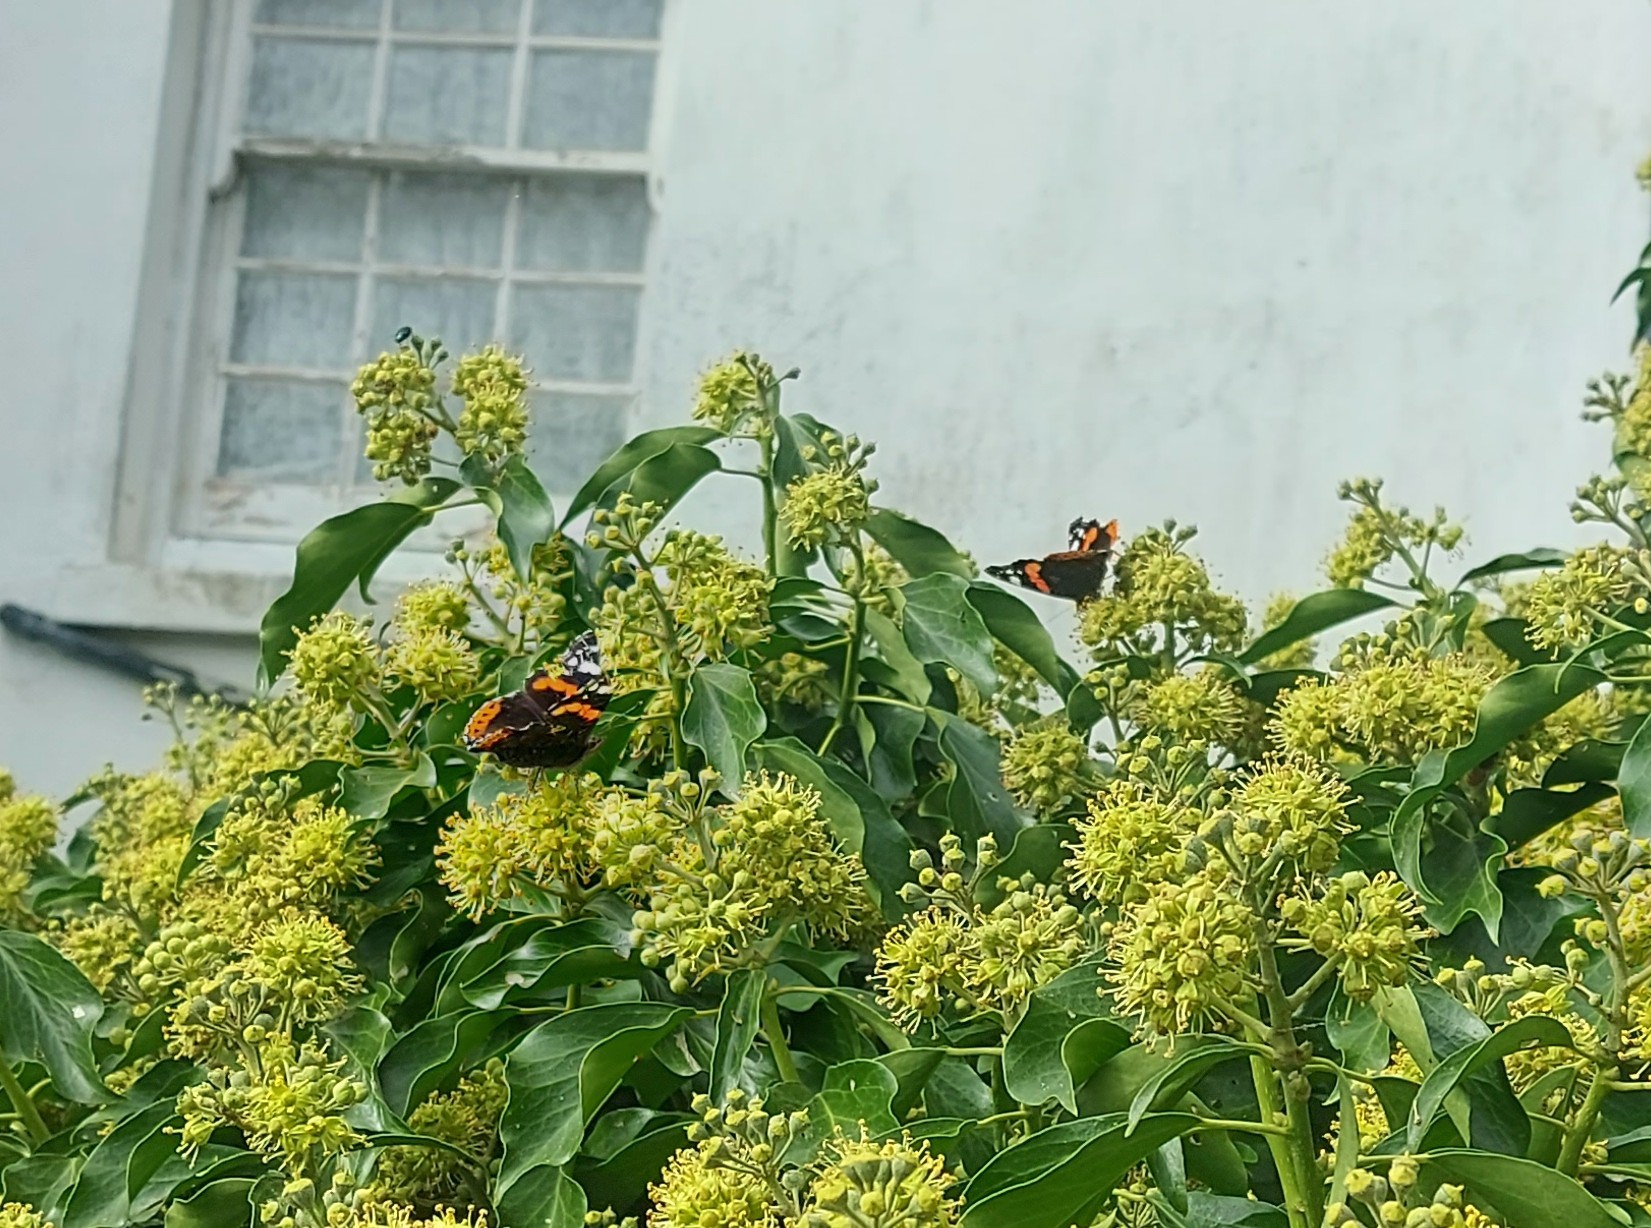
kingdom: Animalia
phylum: Arthropoda
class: Insecta
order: Lepidoptera
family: Nymphalidae
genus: Vanessa
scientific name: Vanessa atalanta
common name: Red admiral
